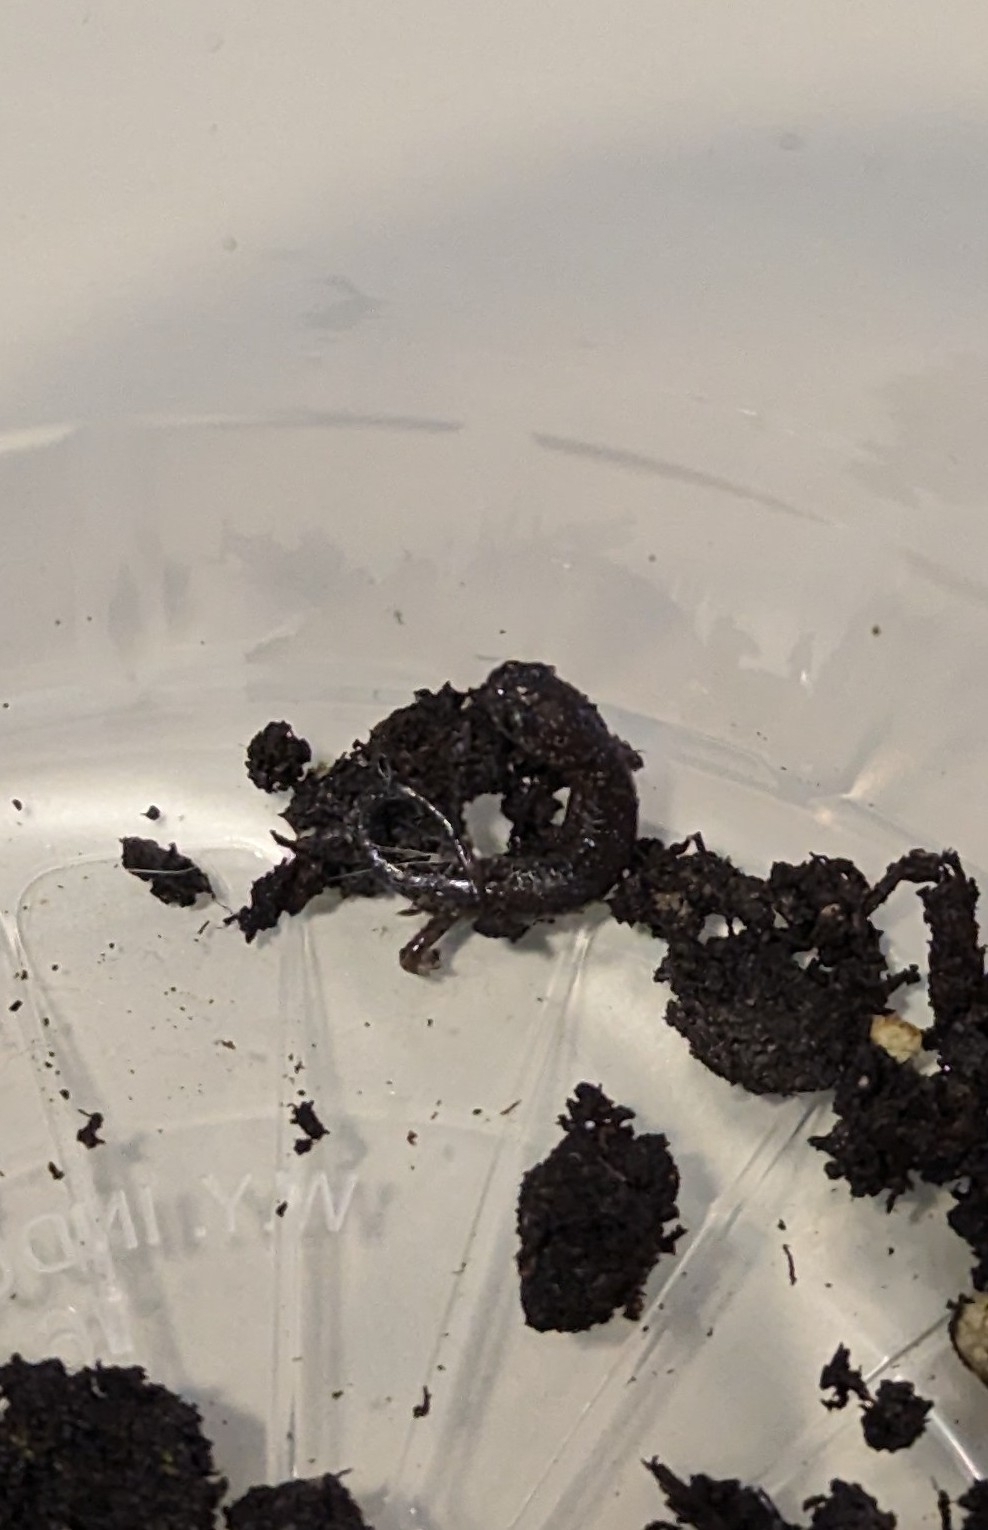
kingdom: Animalia
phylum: Chordata
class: Amphibia
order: Caudata
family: Plethodontidae
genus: Plethodon
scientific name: Plethodon cinereus
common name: Redback salamander
